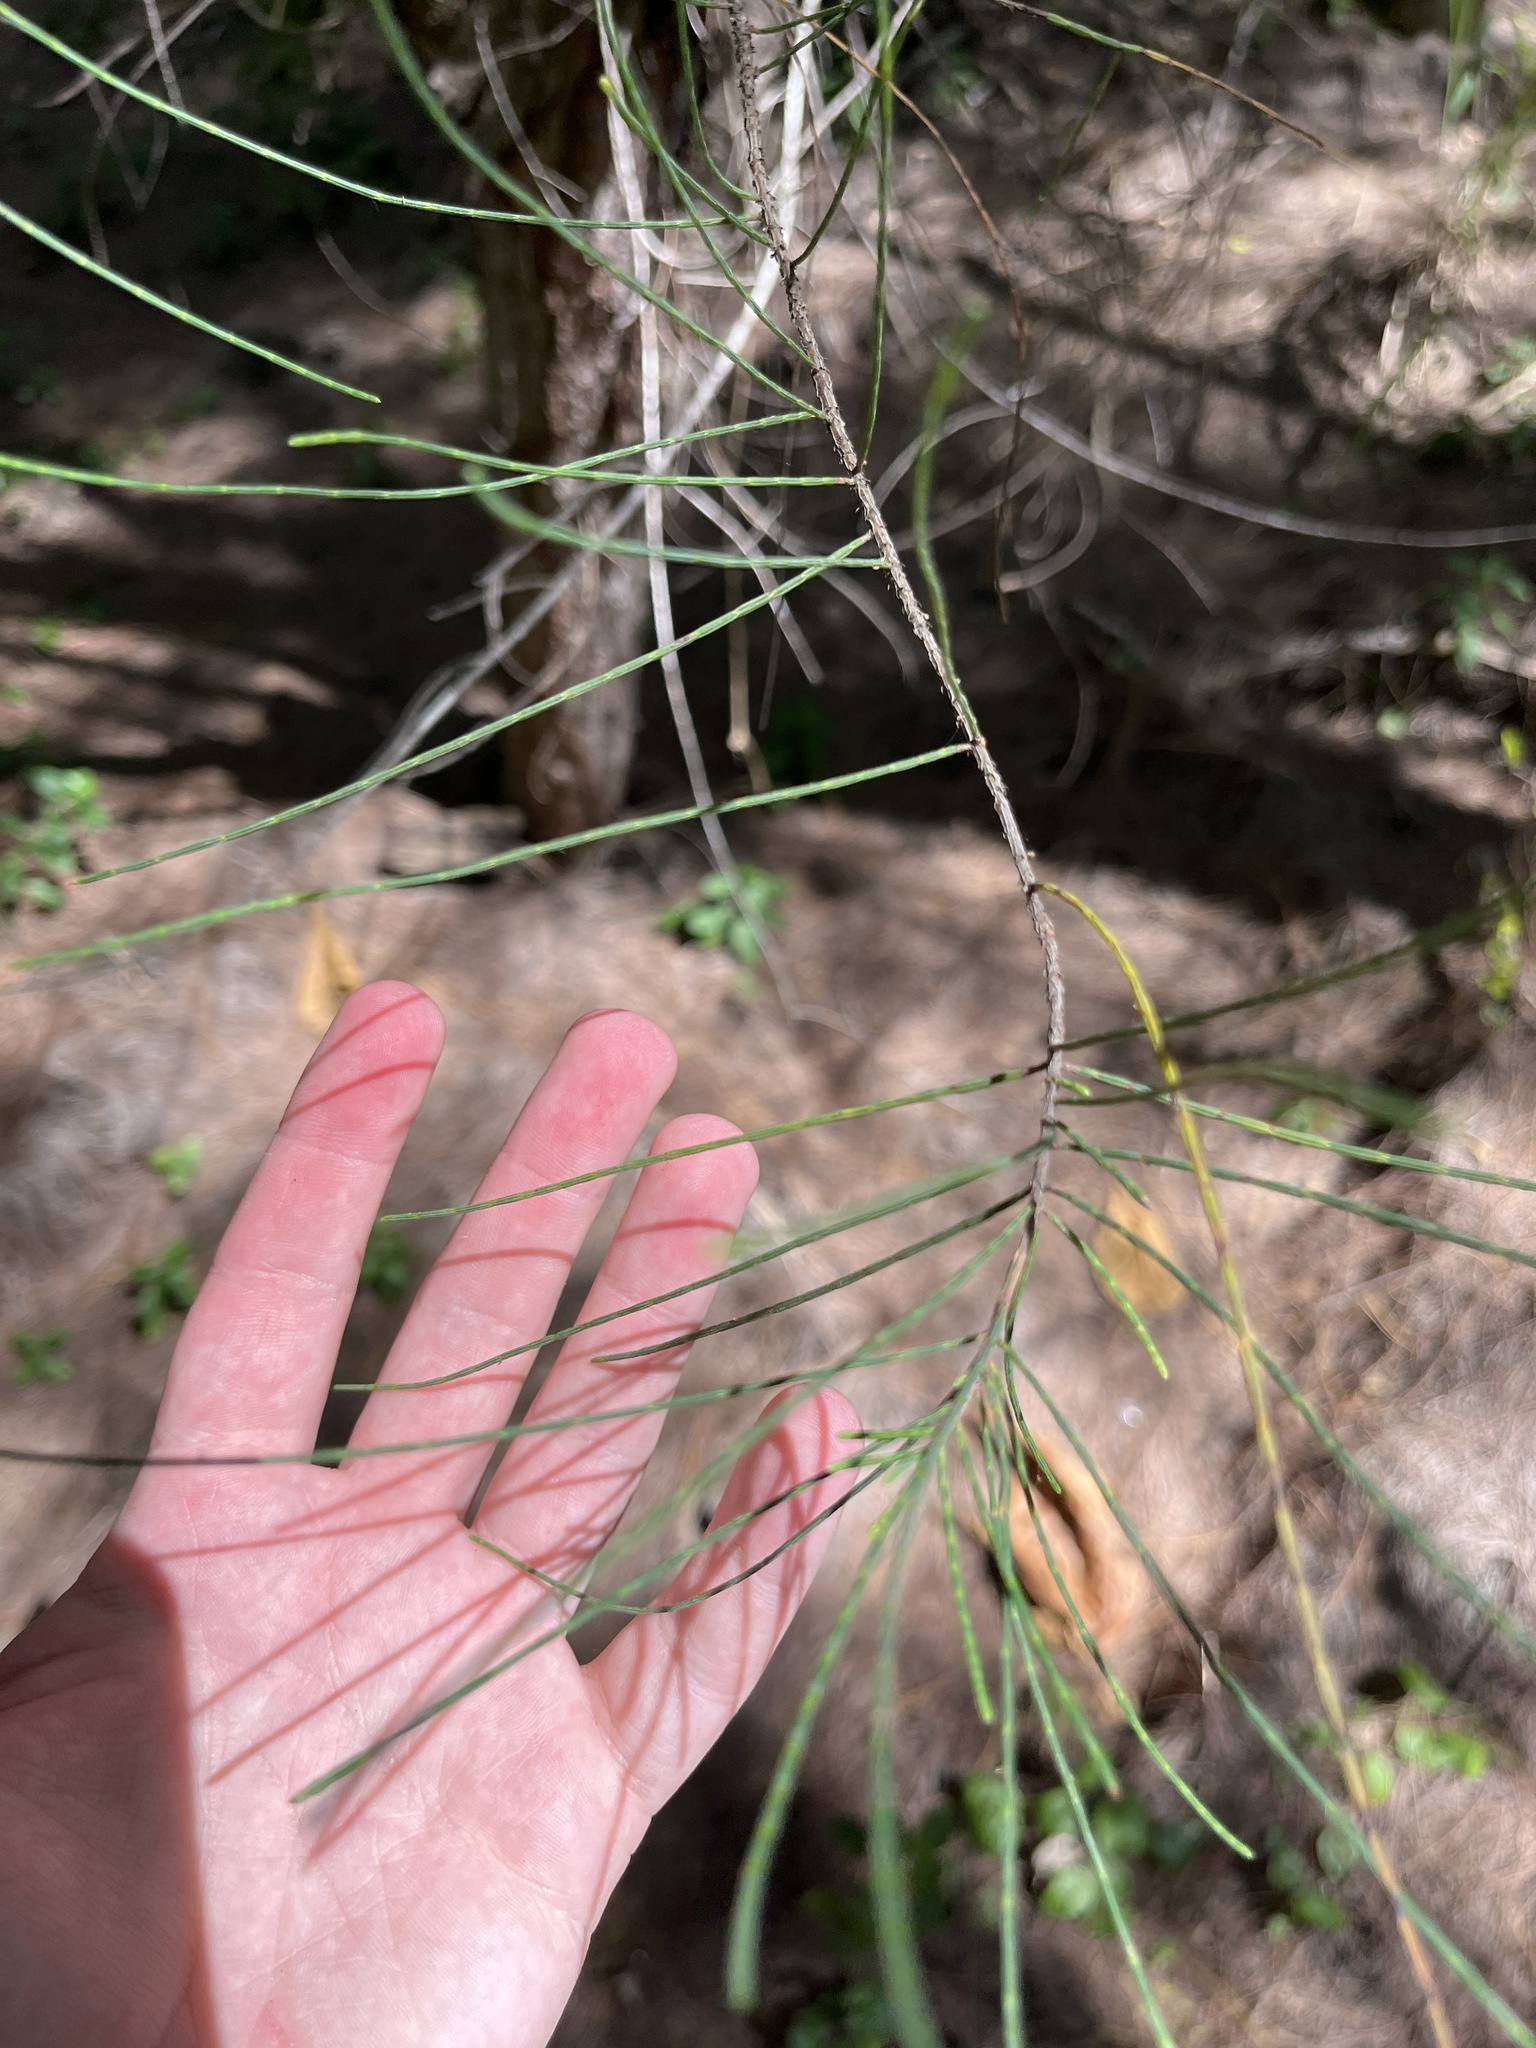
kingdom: Plantae
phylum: Tracheophyta
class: Magnoliopsida
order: Fagales
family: Casuarinaceae
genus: Casuarina
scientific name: Casuarina equisetifolia
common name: Beach sheoak
